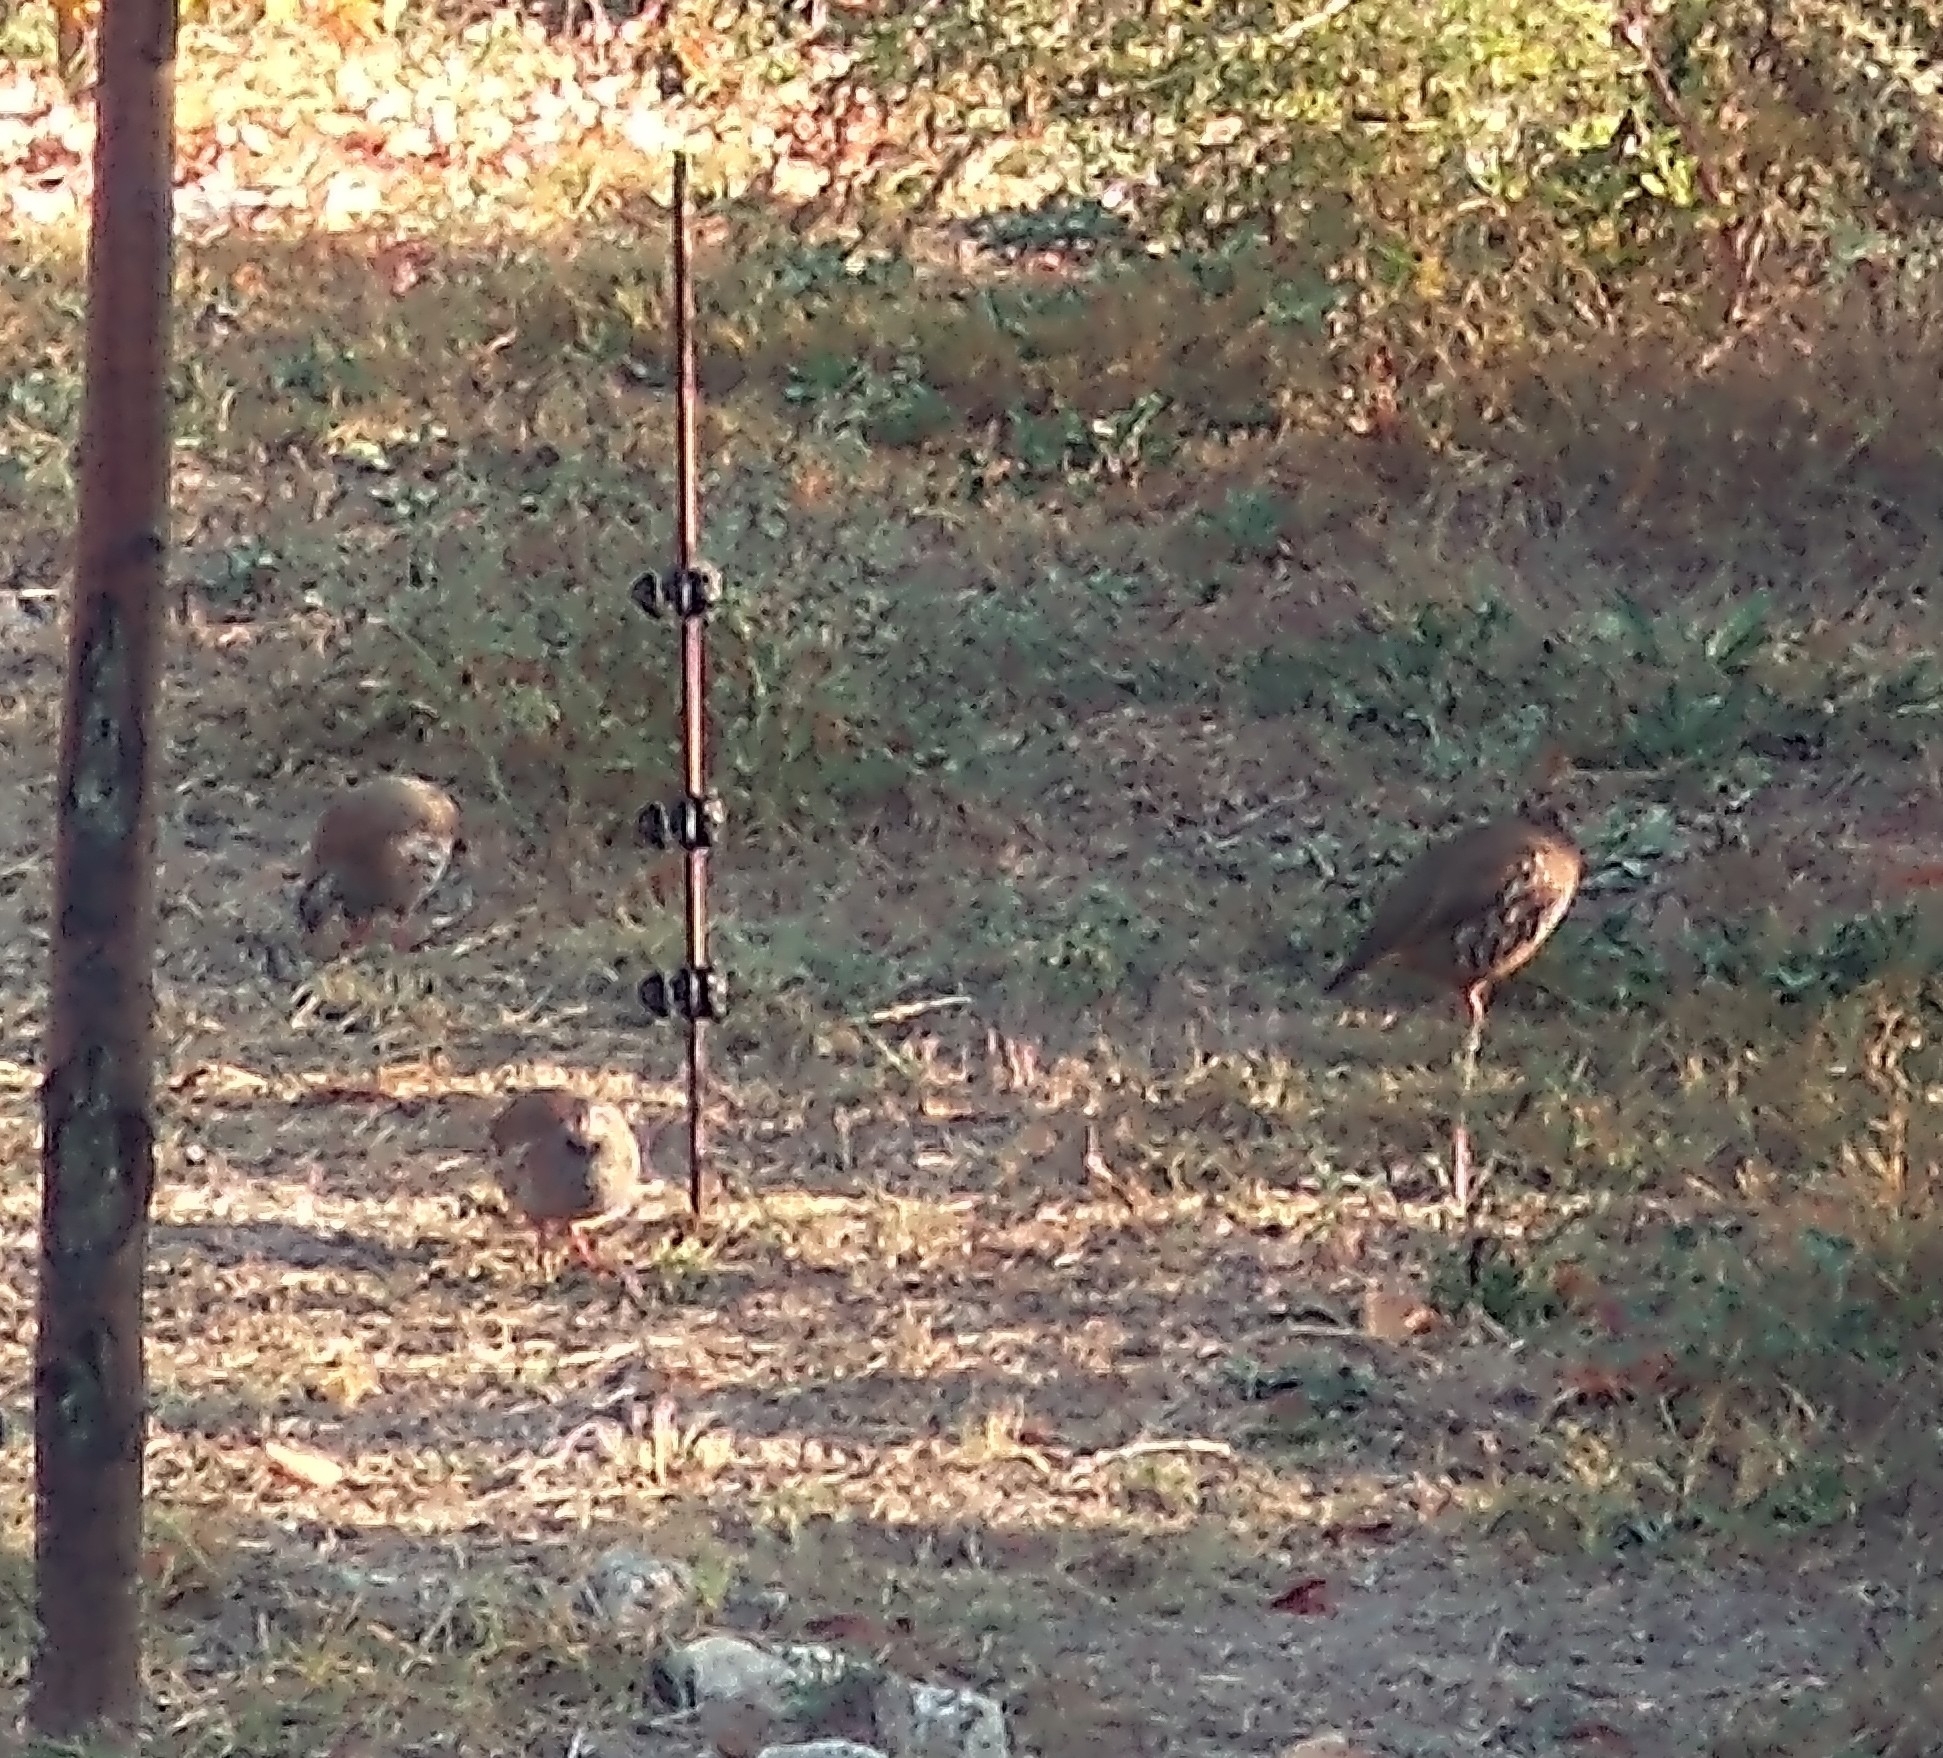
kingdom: Animalia
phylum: Chordata
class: Aves
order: Galliformes
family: Phasianidae
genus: Alectoris
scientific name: Alectoris rufa
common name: Red-legged partridge
